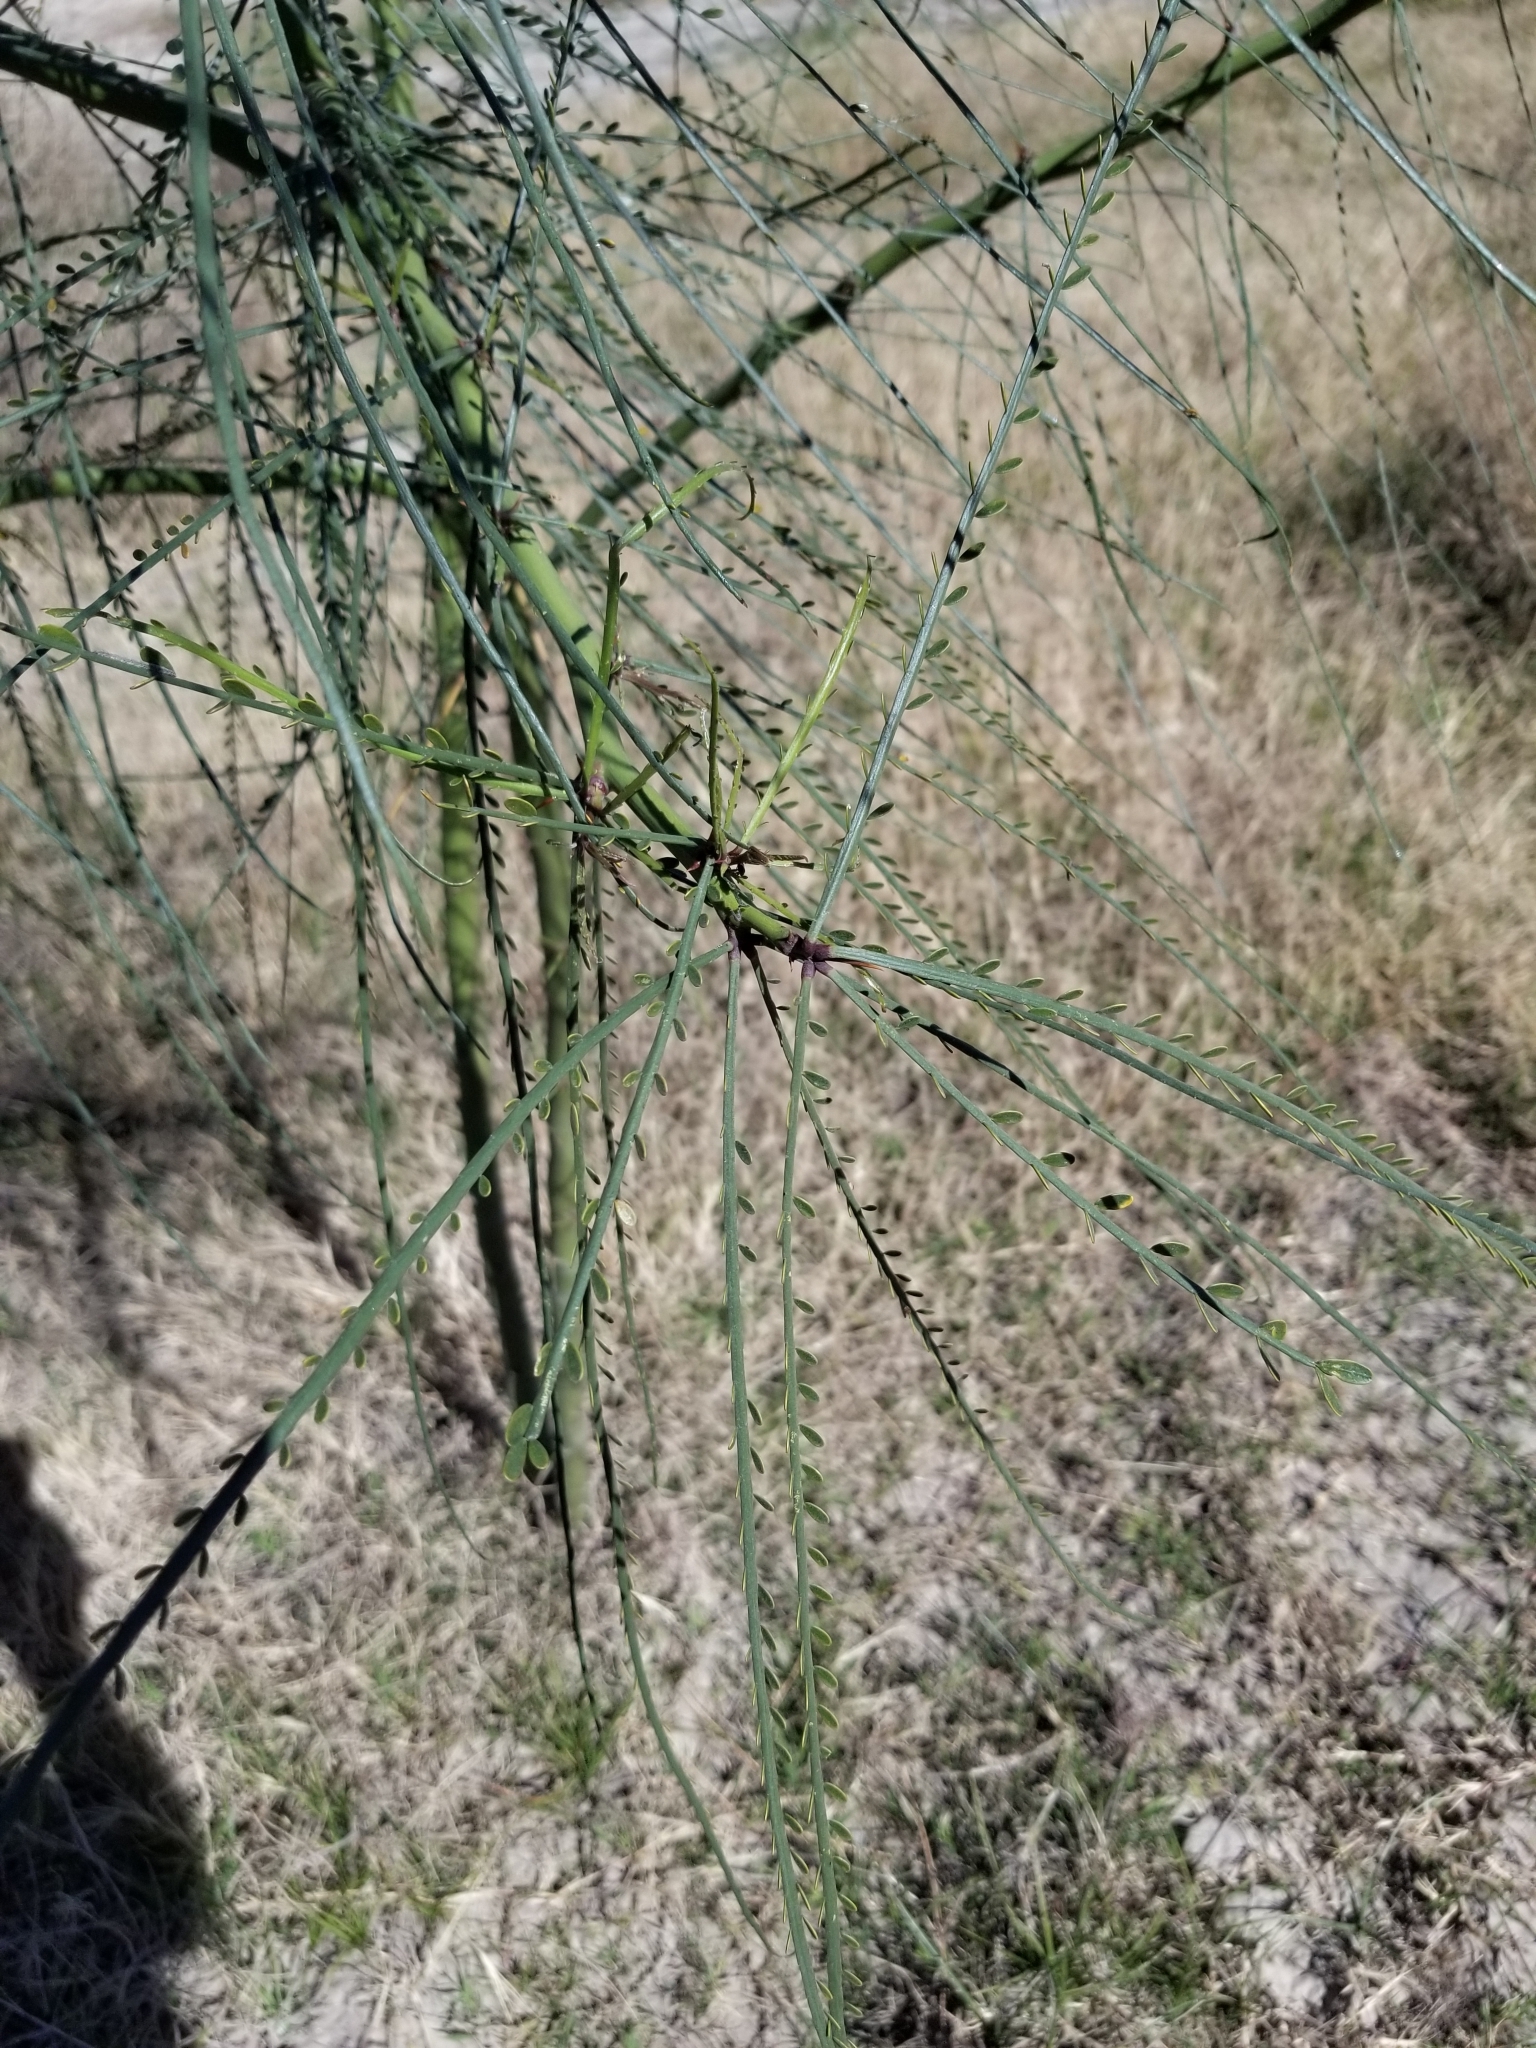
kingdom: Plantae
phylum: Tracheophyta
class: Magnoliopsida
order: Fabales
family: Fabaceae
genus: Parkinsonia
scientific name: Parkinsonia aculeata
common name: Jerusalem thorn
